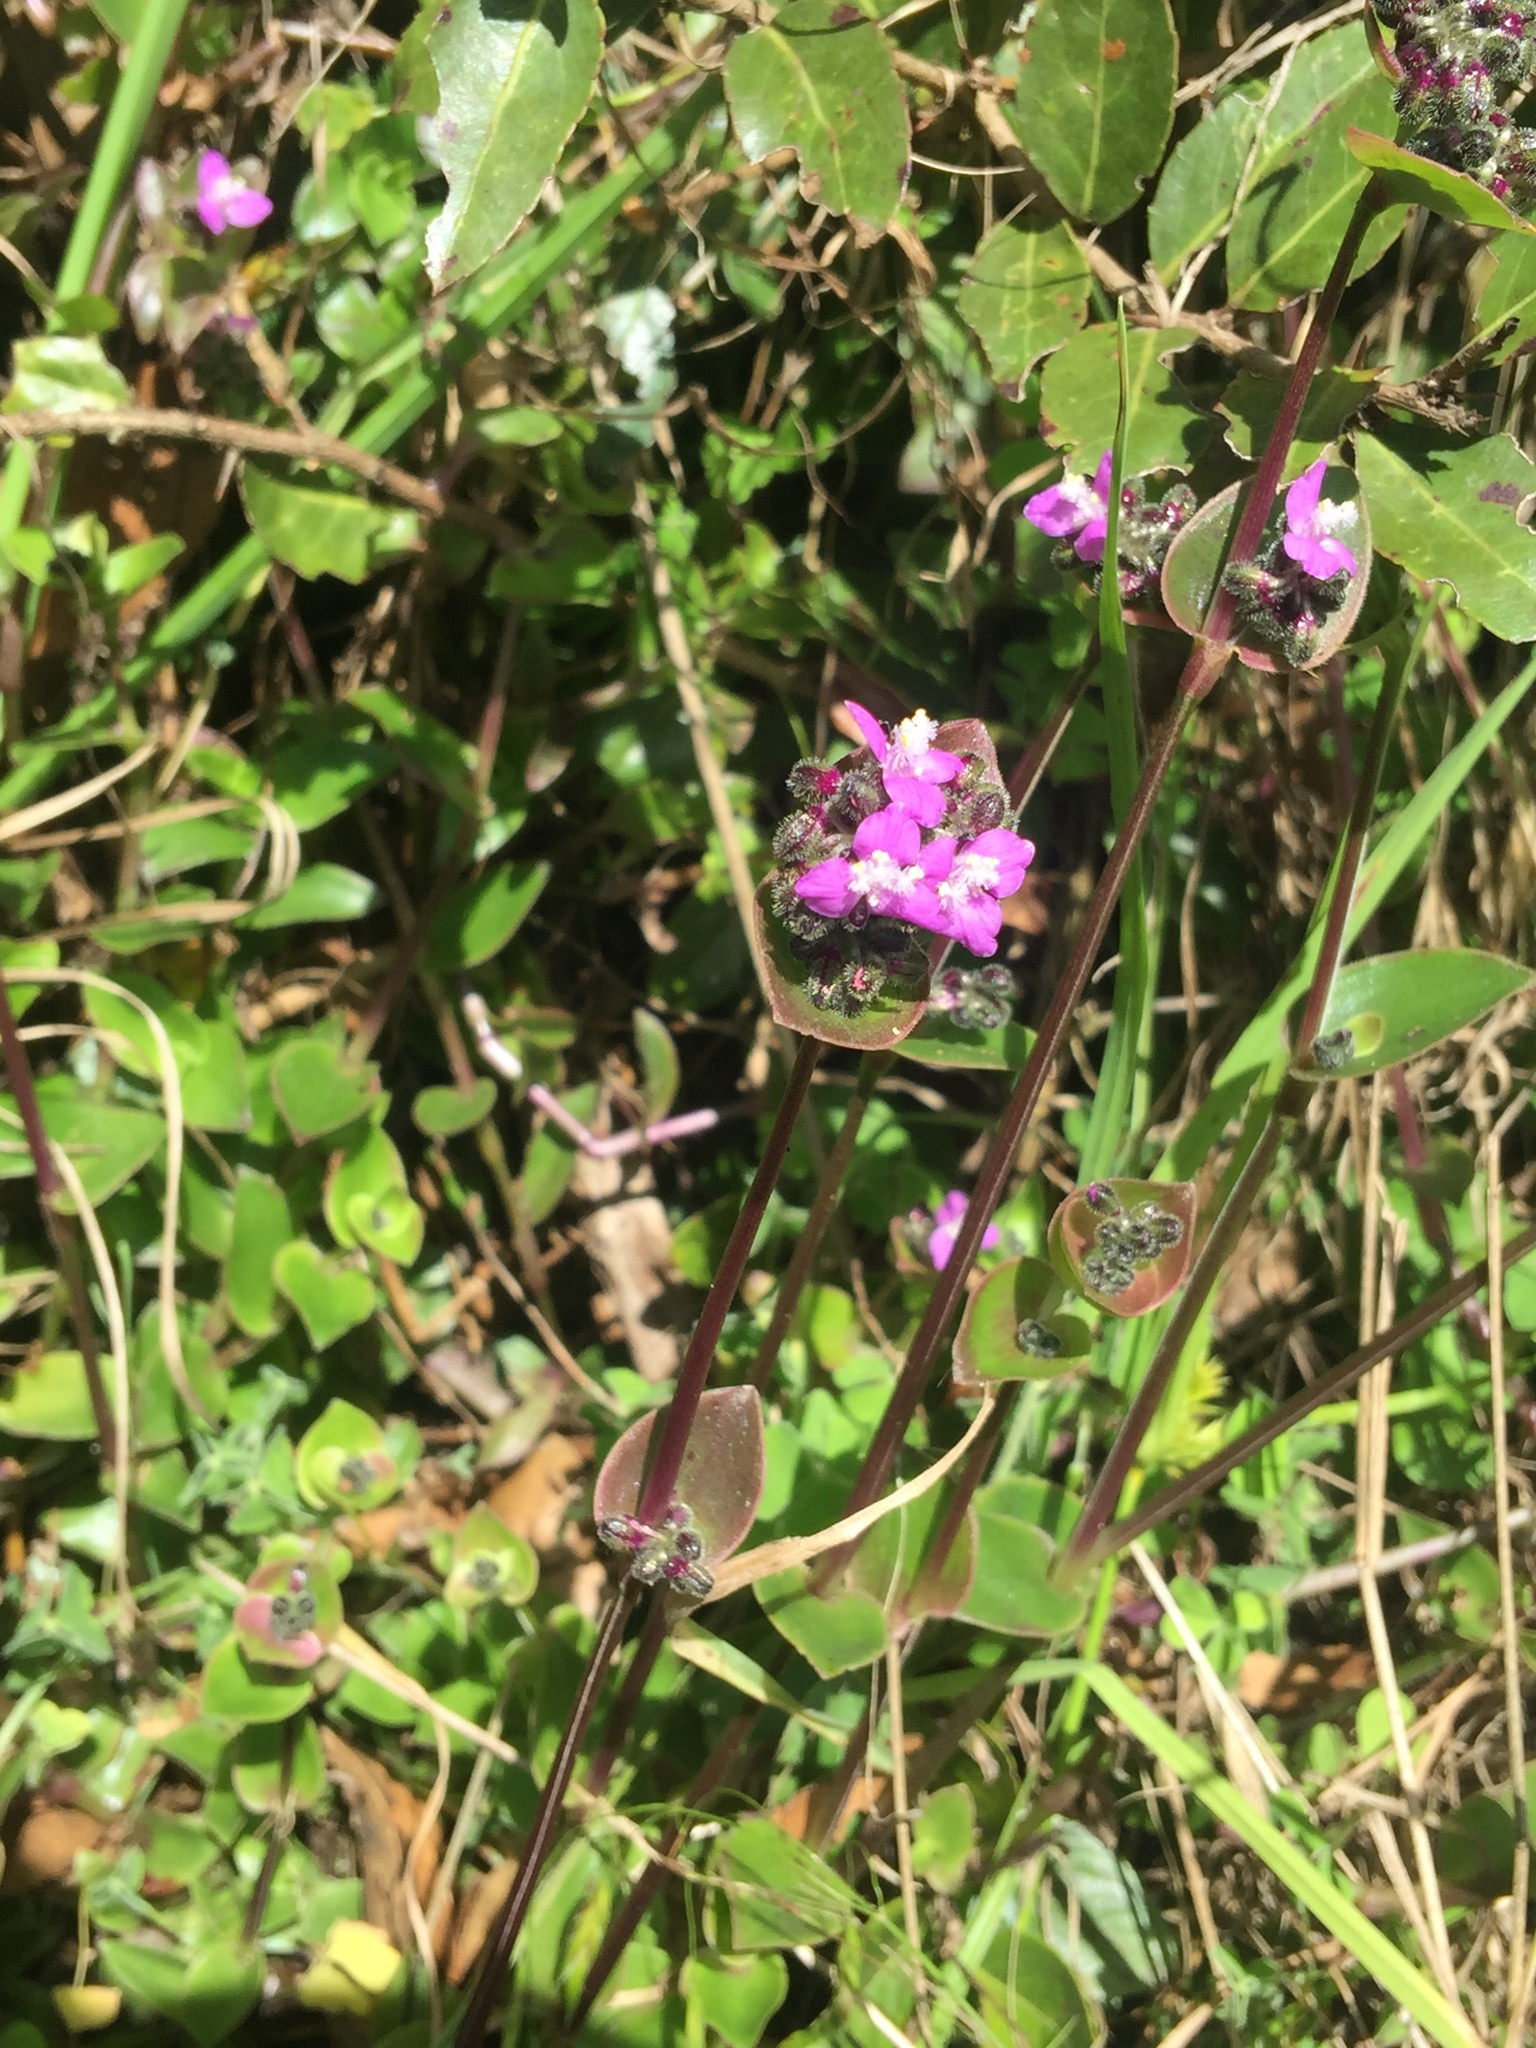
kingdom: Plantae
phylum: Tracheophyta
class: Liliopsida
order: Commelinales
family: Commelinaceae
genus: Callisia
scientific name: Callisia ionantha
